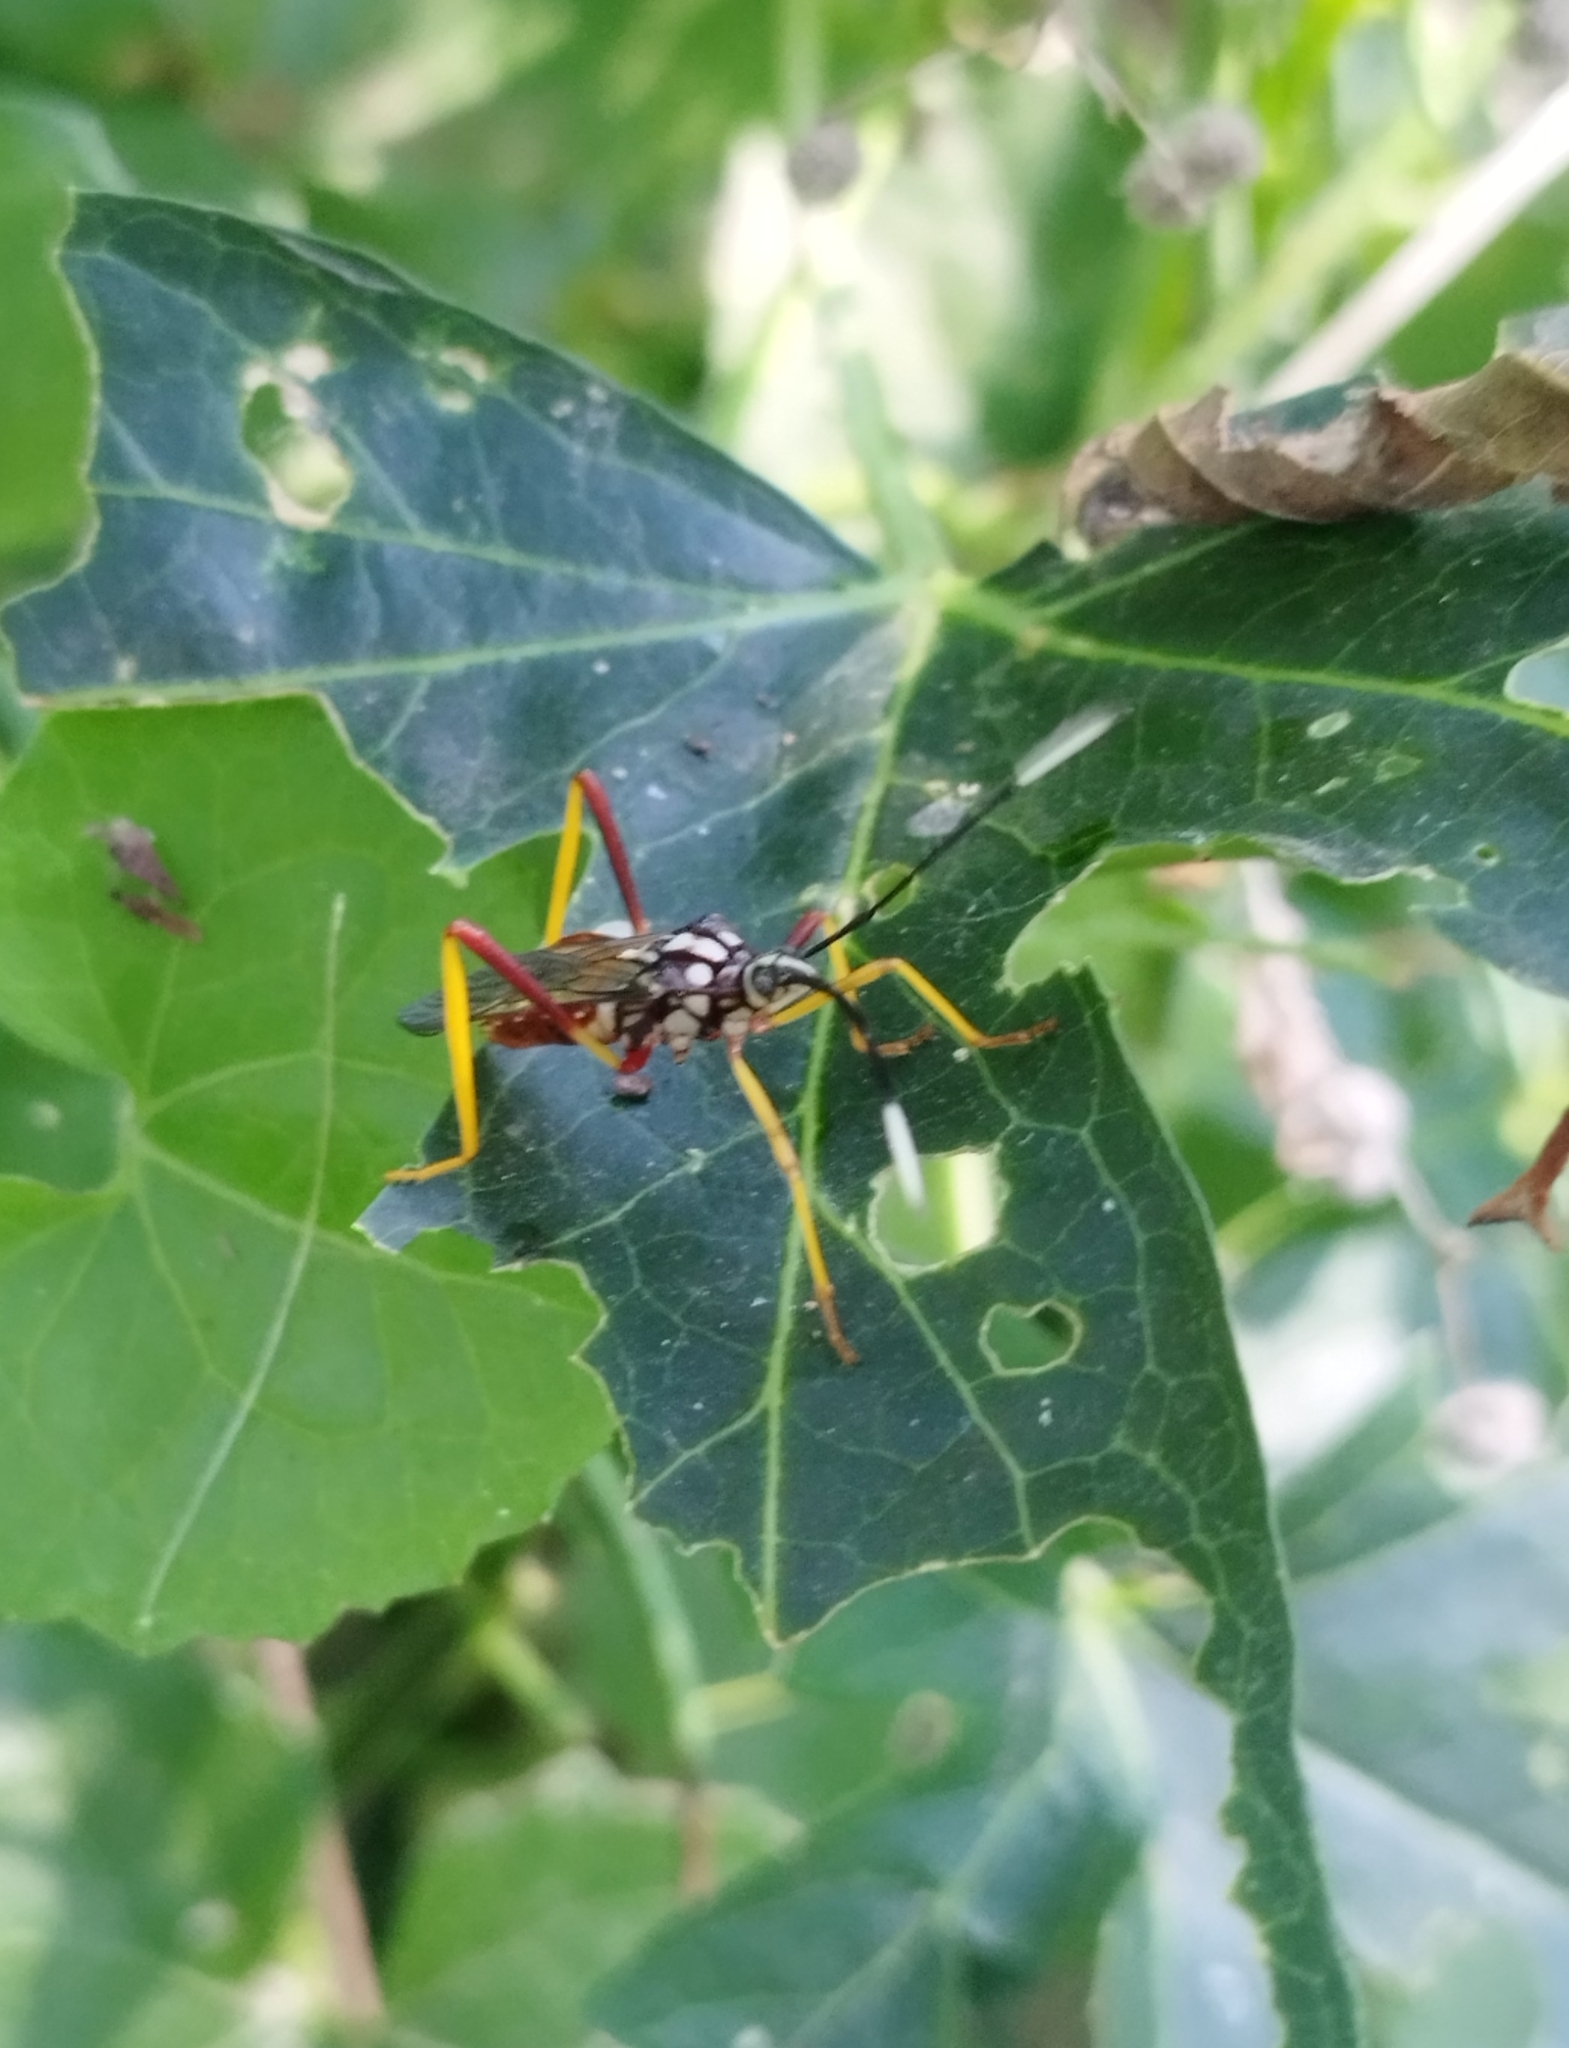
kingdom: Animalia
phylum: Arthropoda
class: Insecta
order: Hemiptera
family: Coreidae
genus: Holhymenia
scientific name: Holhymenia histrio
